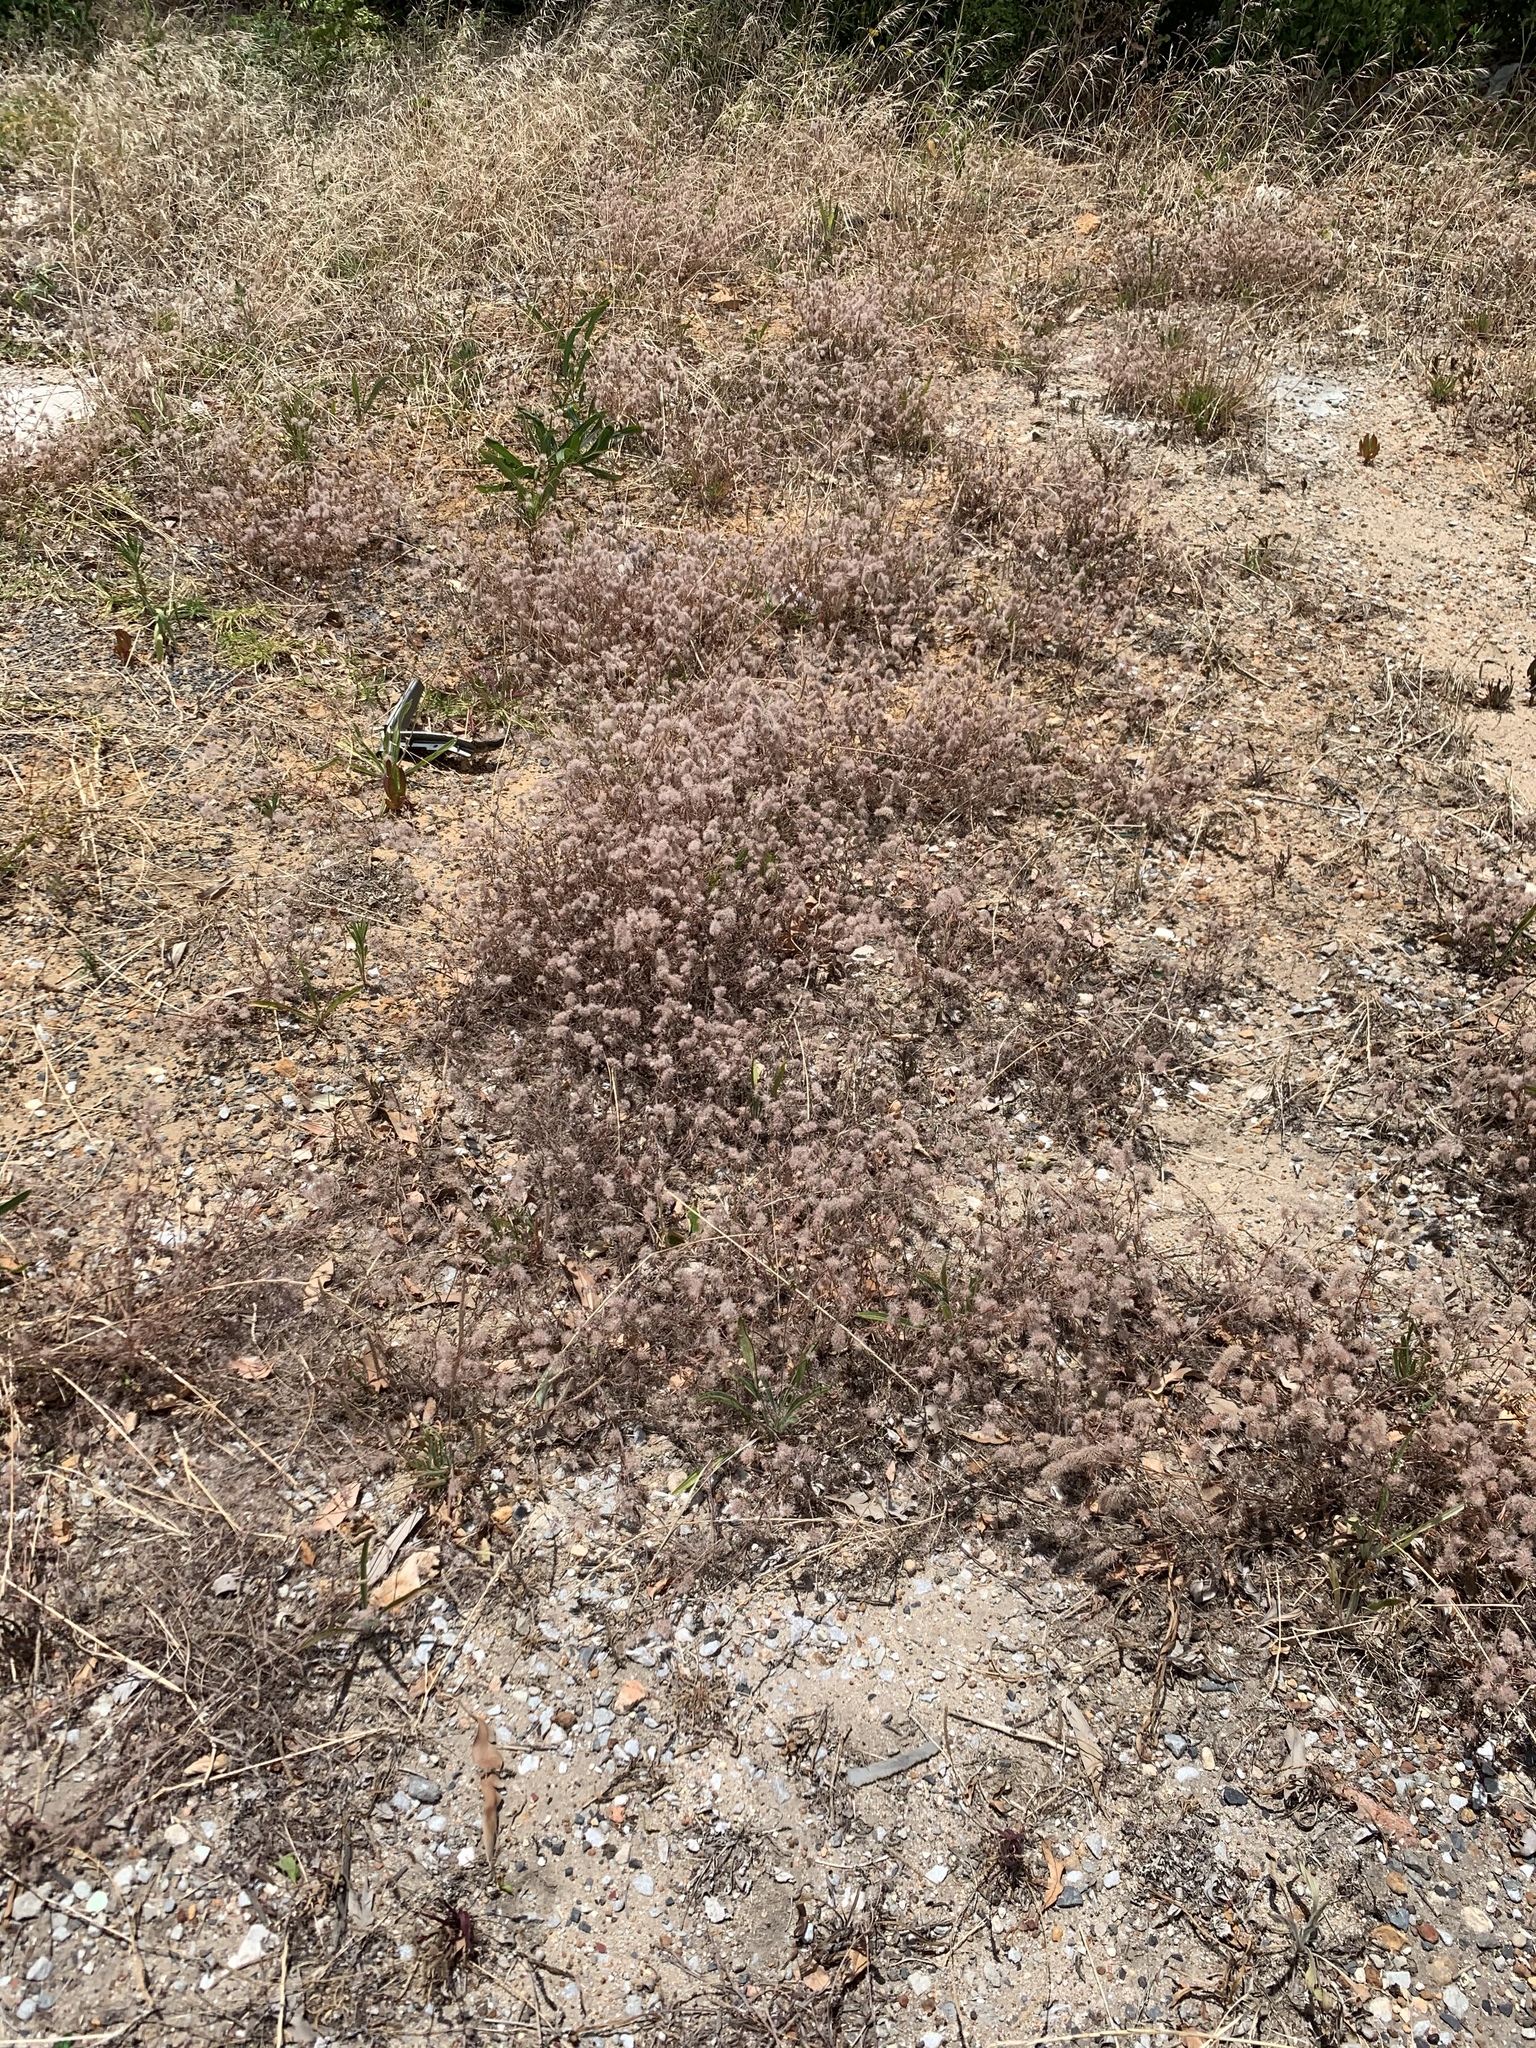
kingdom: Plantae
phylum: Tracheophyta
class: Magnoliopsida
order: Fabales
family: Fabaceae
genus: Trifolium
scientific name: Trifolium arvense
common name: Hare's-foot clover
